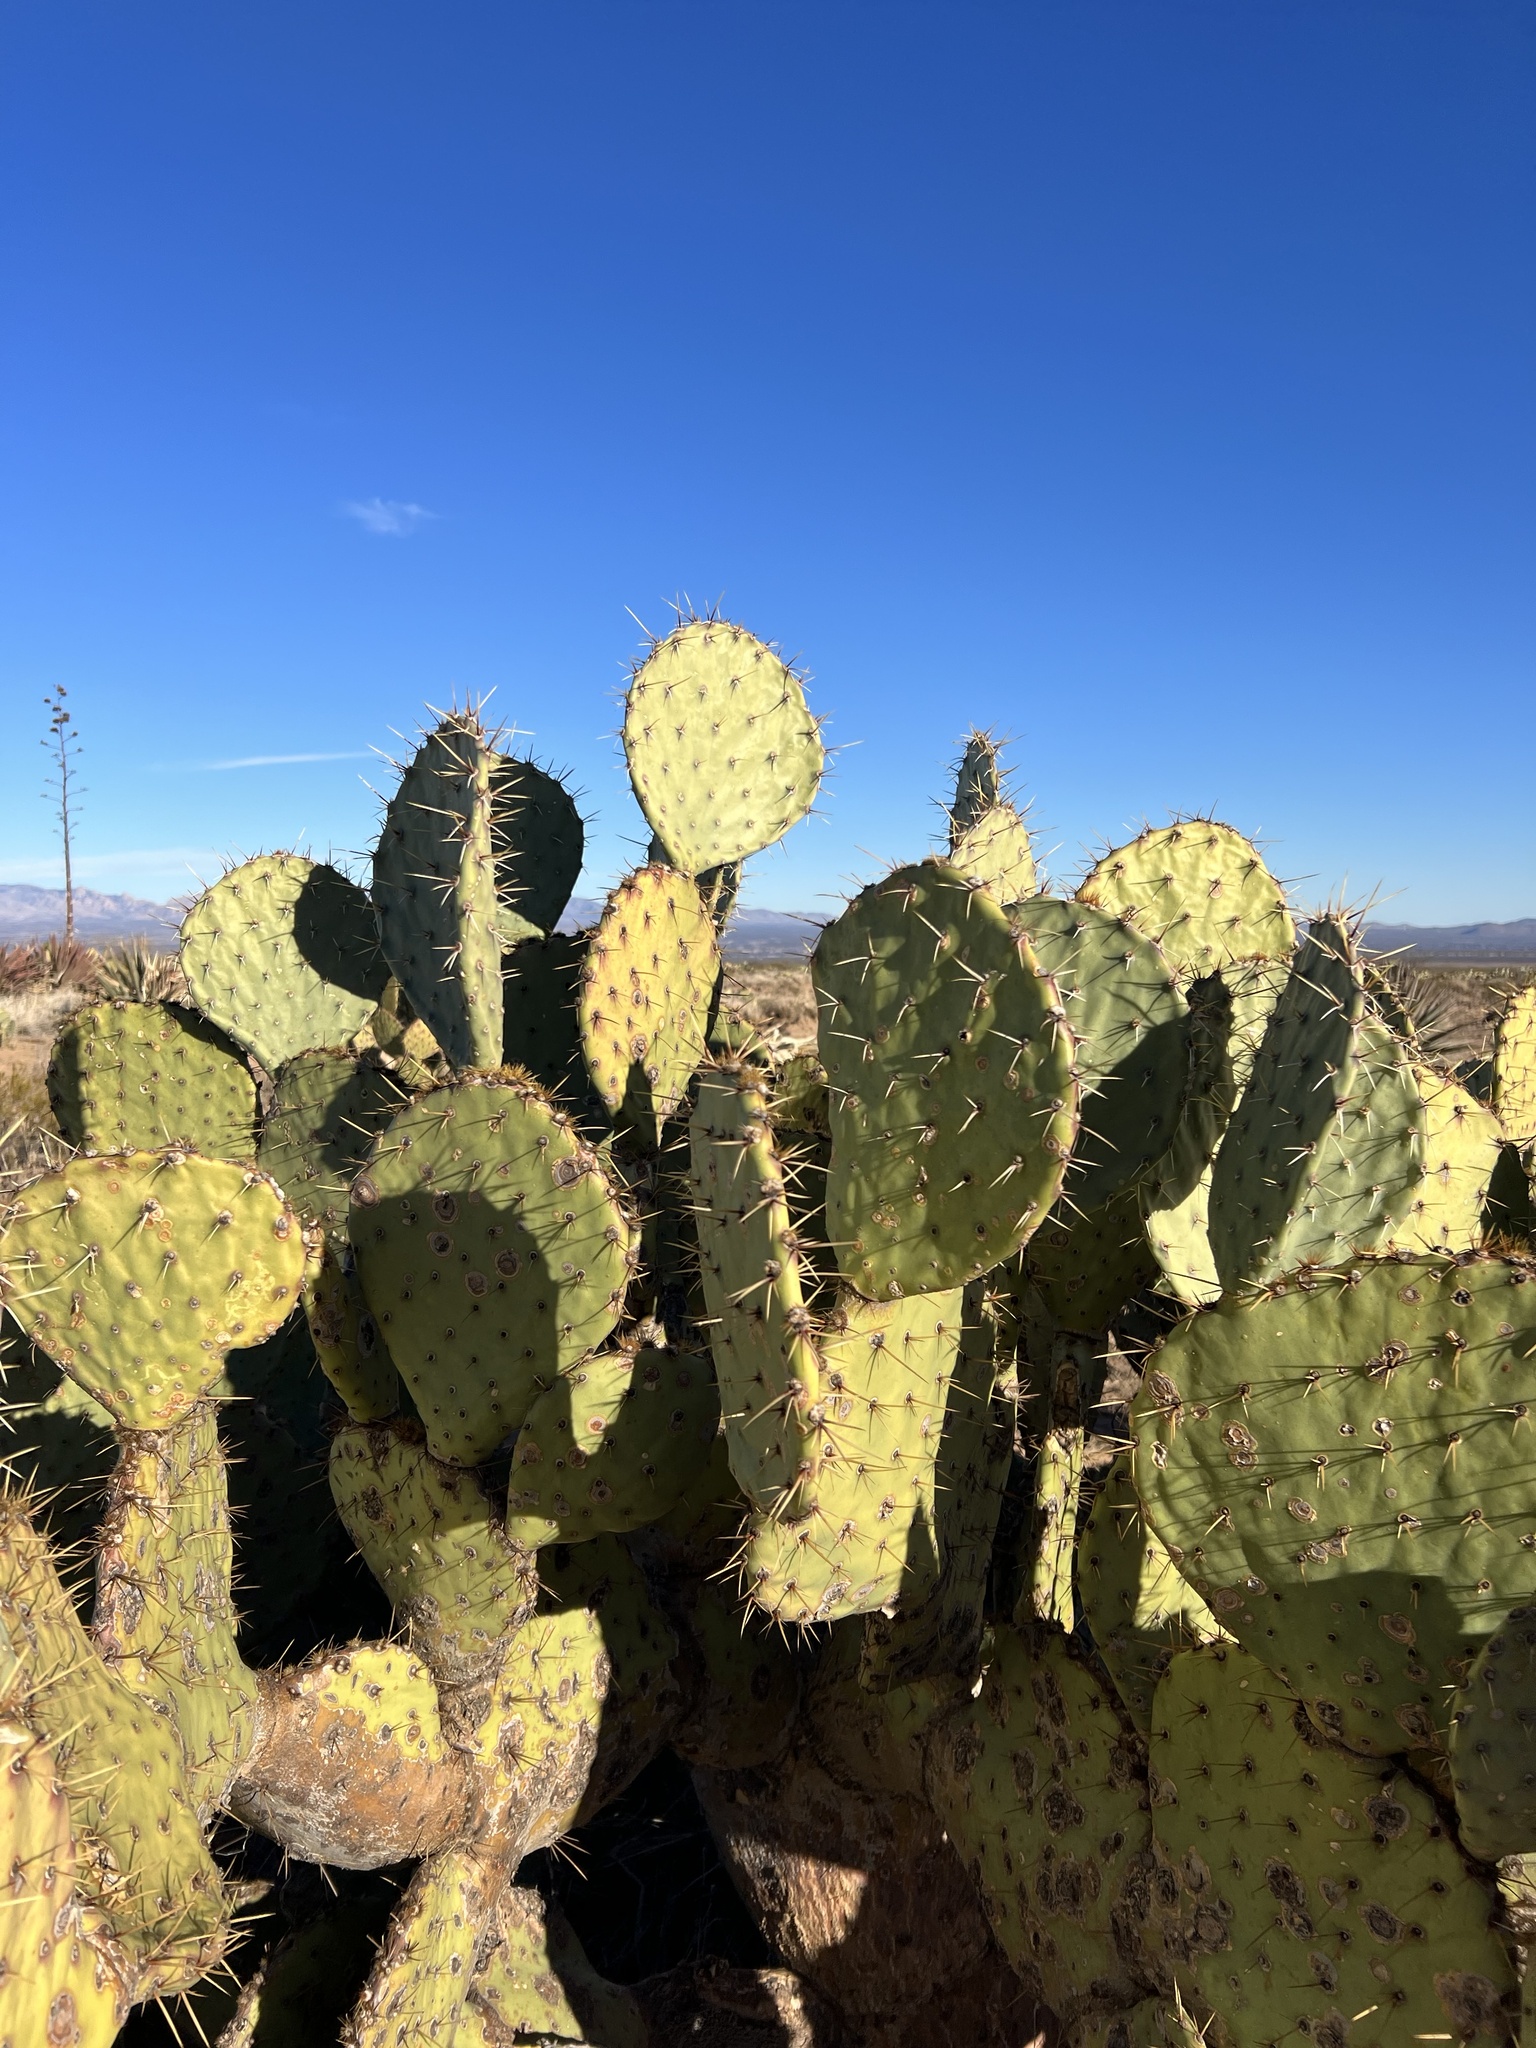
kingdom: Plantae
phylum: Tracheophyta
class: Magnoliopsida
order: Caryophyllales
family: Cactaceae
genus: Opuntia
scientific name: Opuntia engelmannii
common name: Cactus-apple
